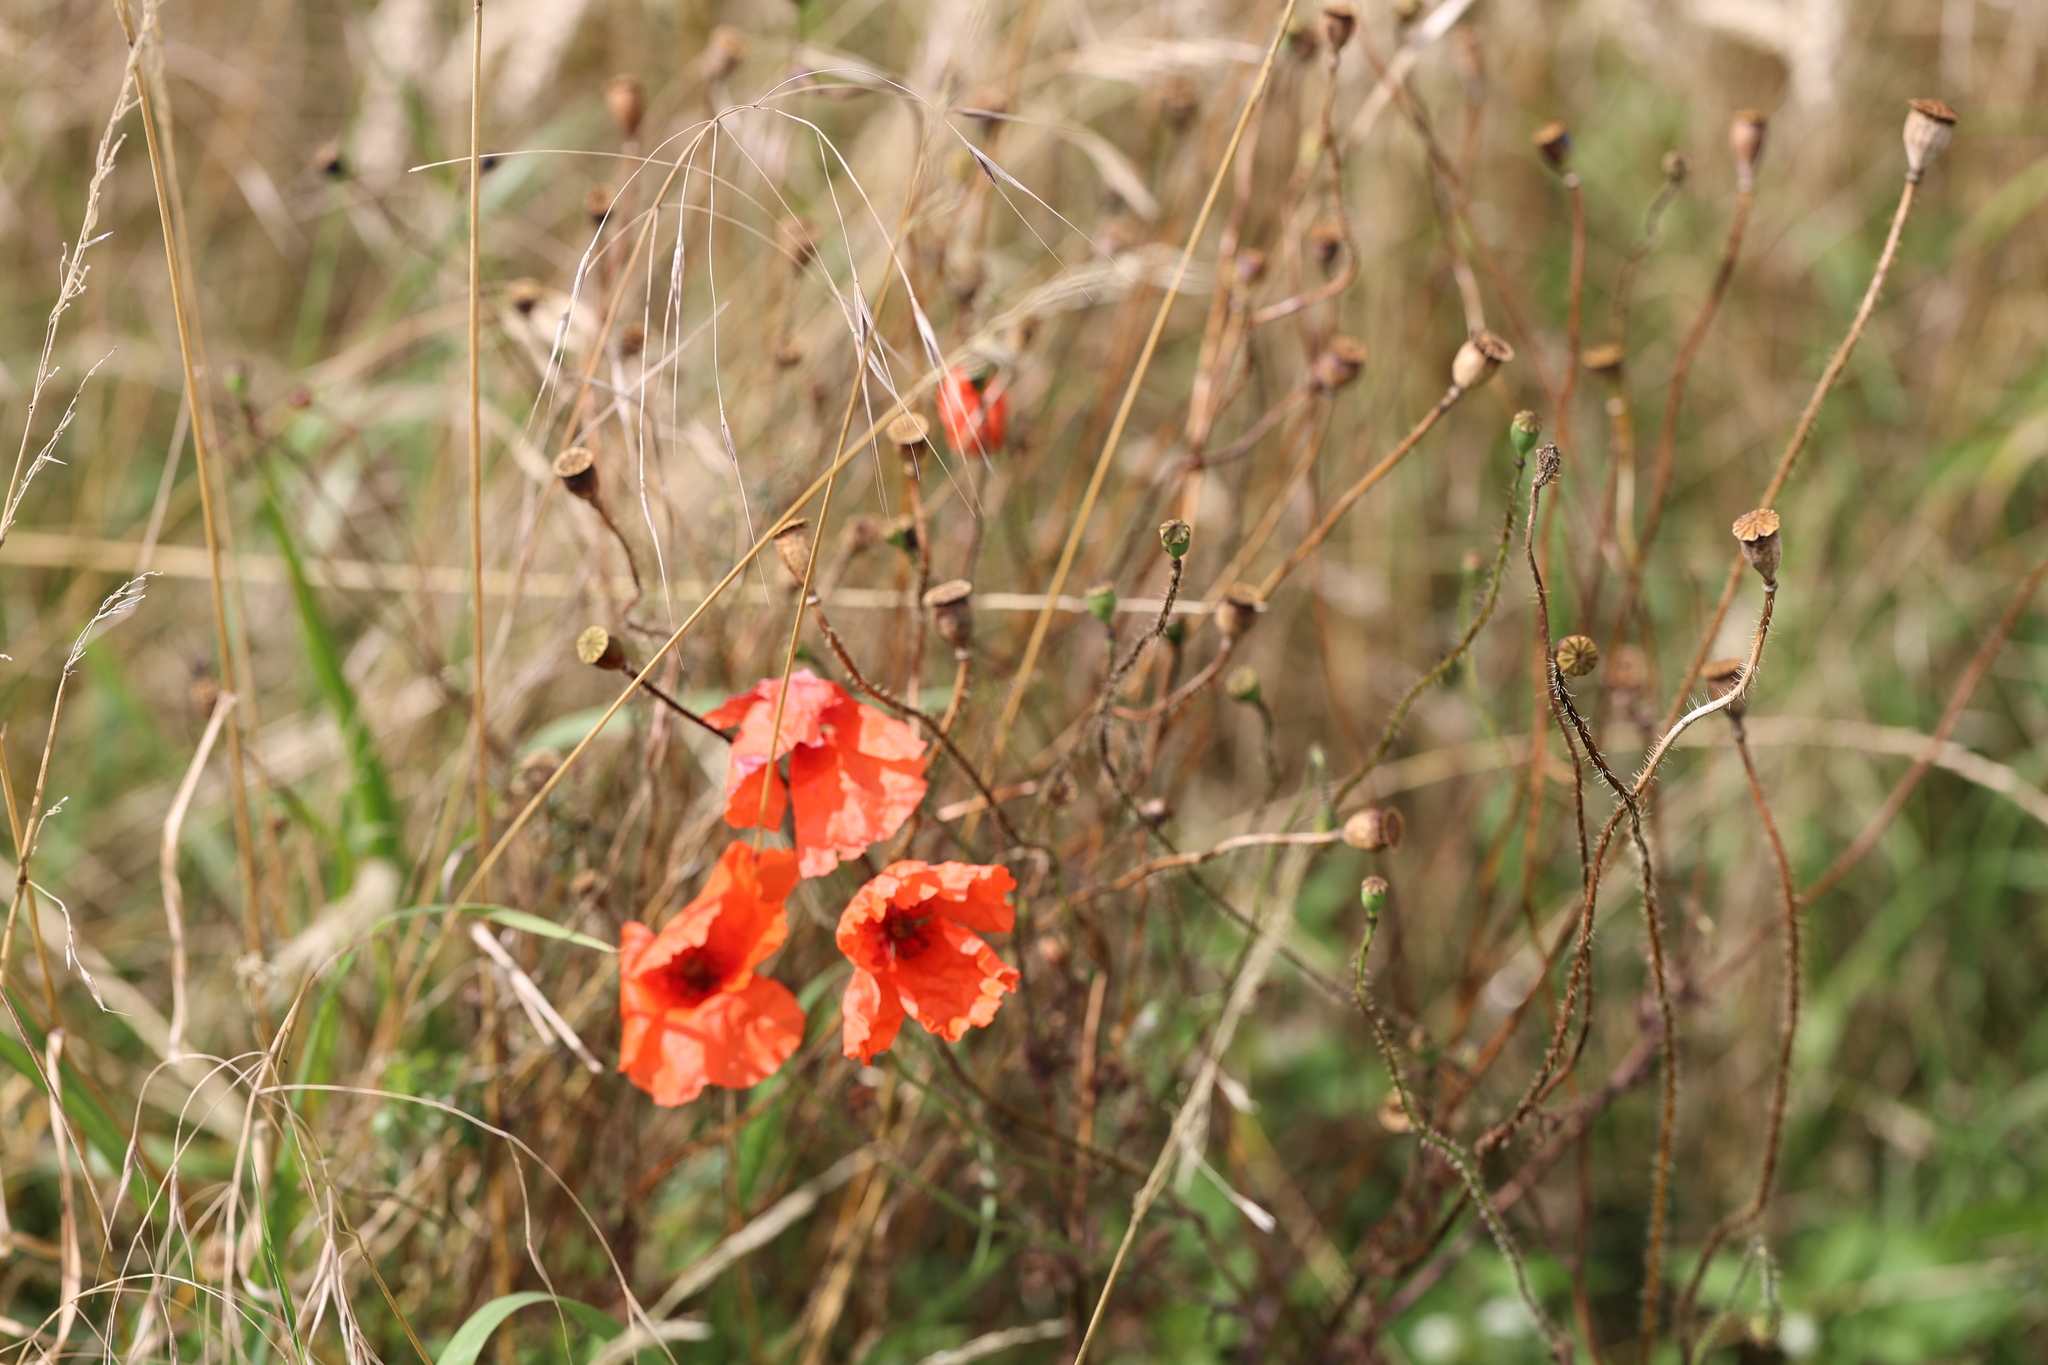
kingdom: Plantae
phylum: Tracheophyta
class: Magnoliopsida
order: Ranunculales
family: Papaveraceae
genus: Papaver
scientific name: Papaver rhoeas
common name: Corn poppy
